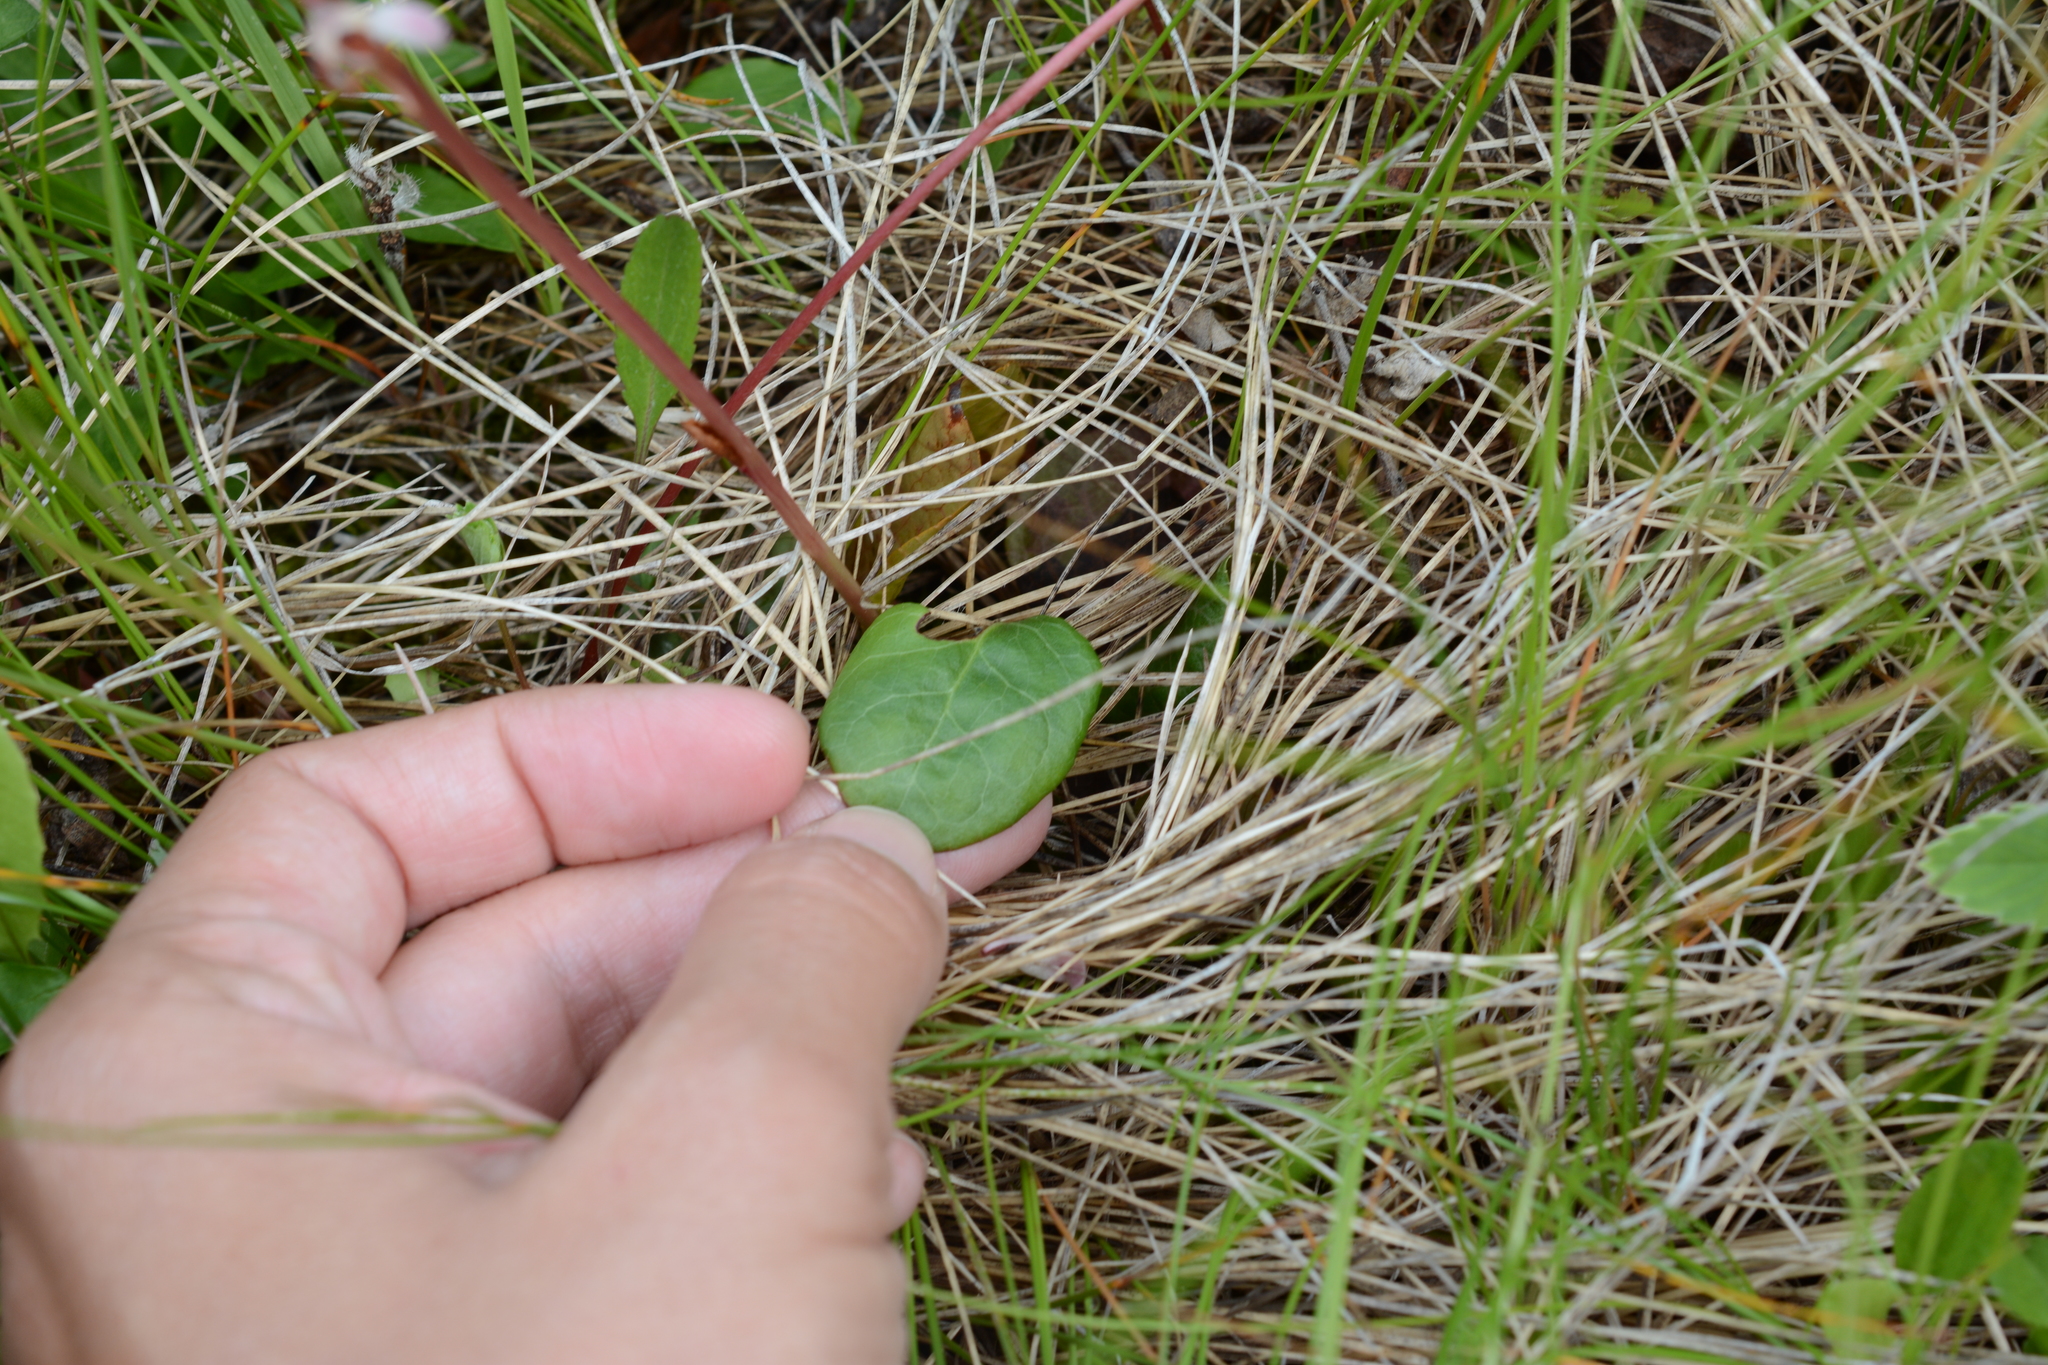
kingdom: Plantae
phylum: Tracheophyta
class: Magnoliopsida
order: Ericales
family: Ericaceae
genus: Pyrola
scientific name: Pyrola asarifolia
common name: Bog wintergreen
